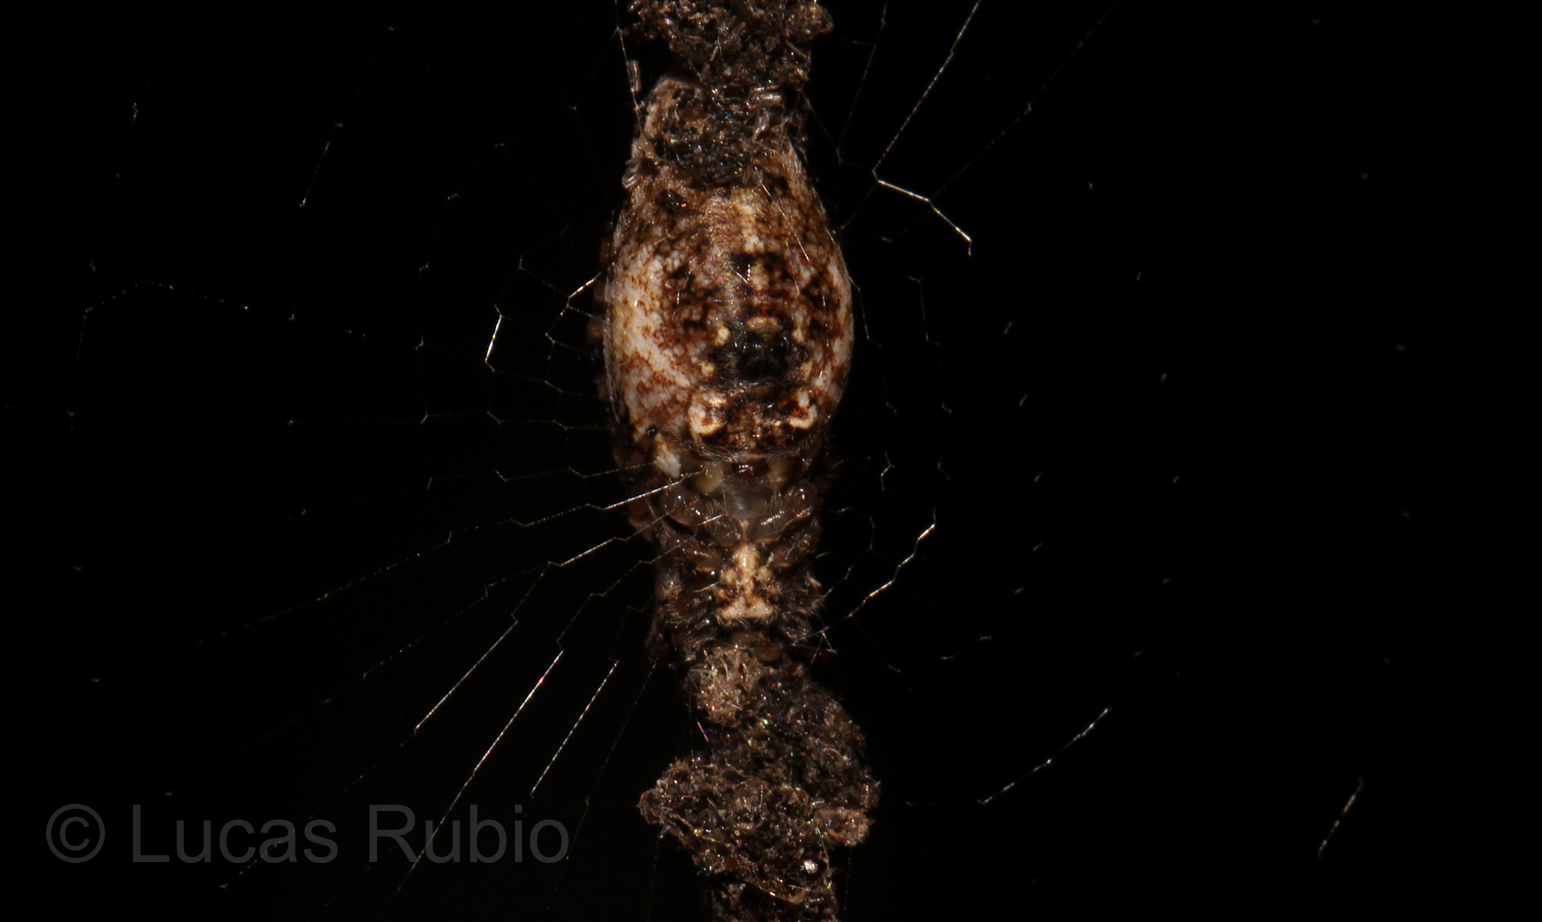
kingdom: Animalia
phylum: Arthropoda
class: Arachnida
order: Araneae
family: Araneidae
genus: Cyclosa
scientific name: Cyclosa machadinho
